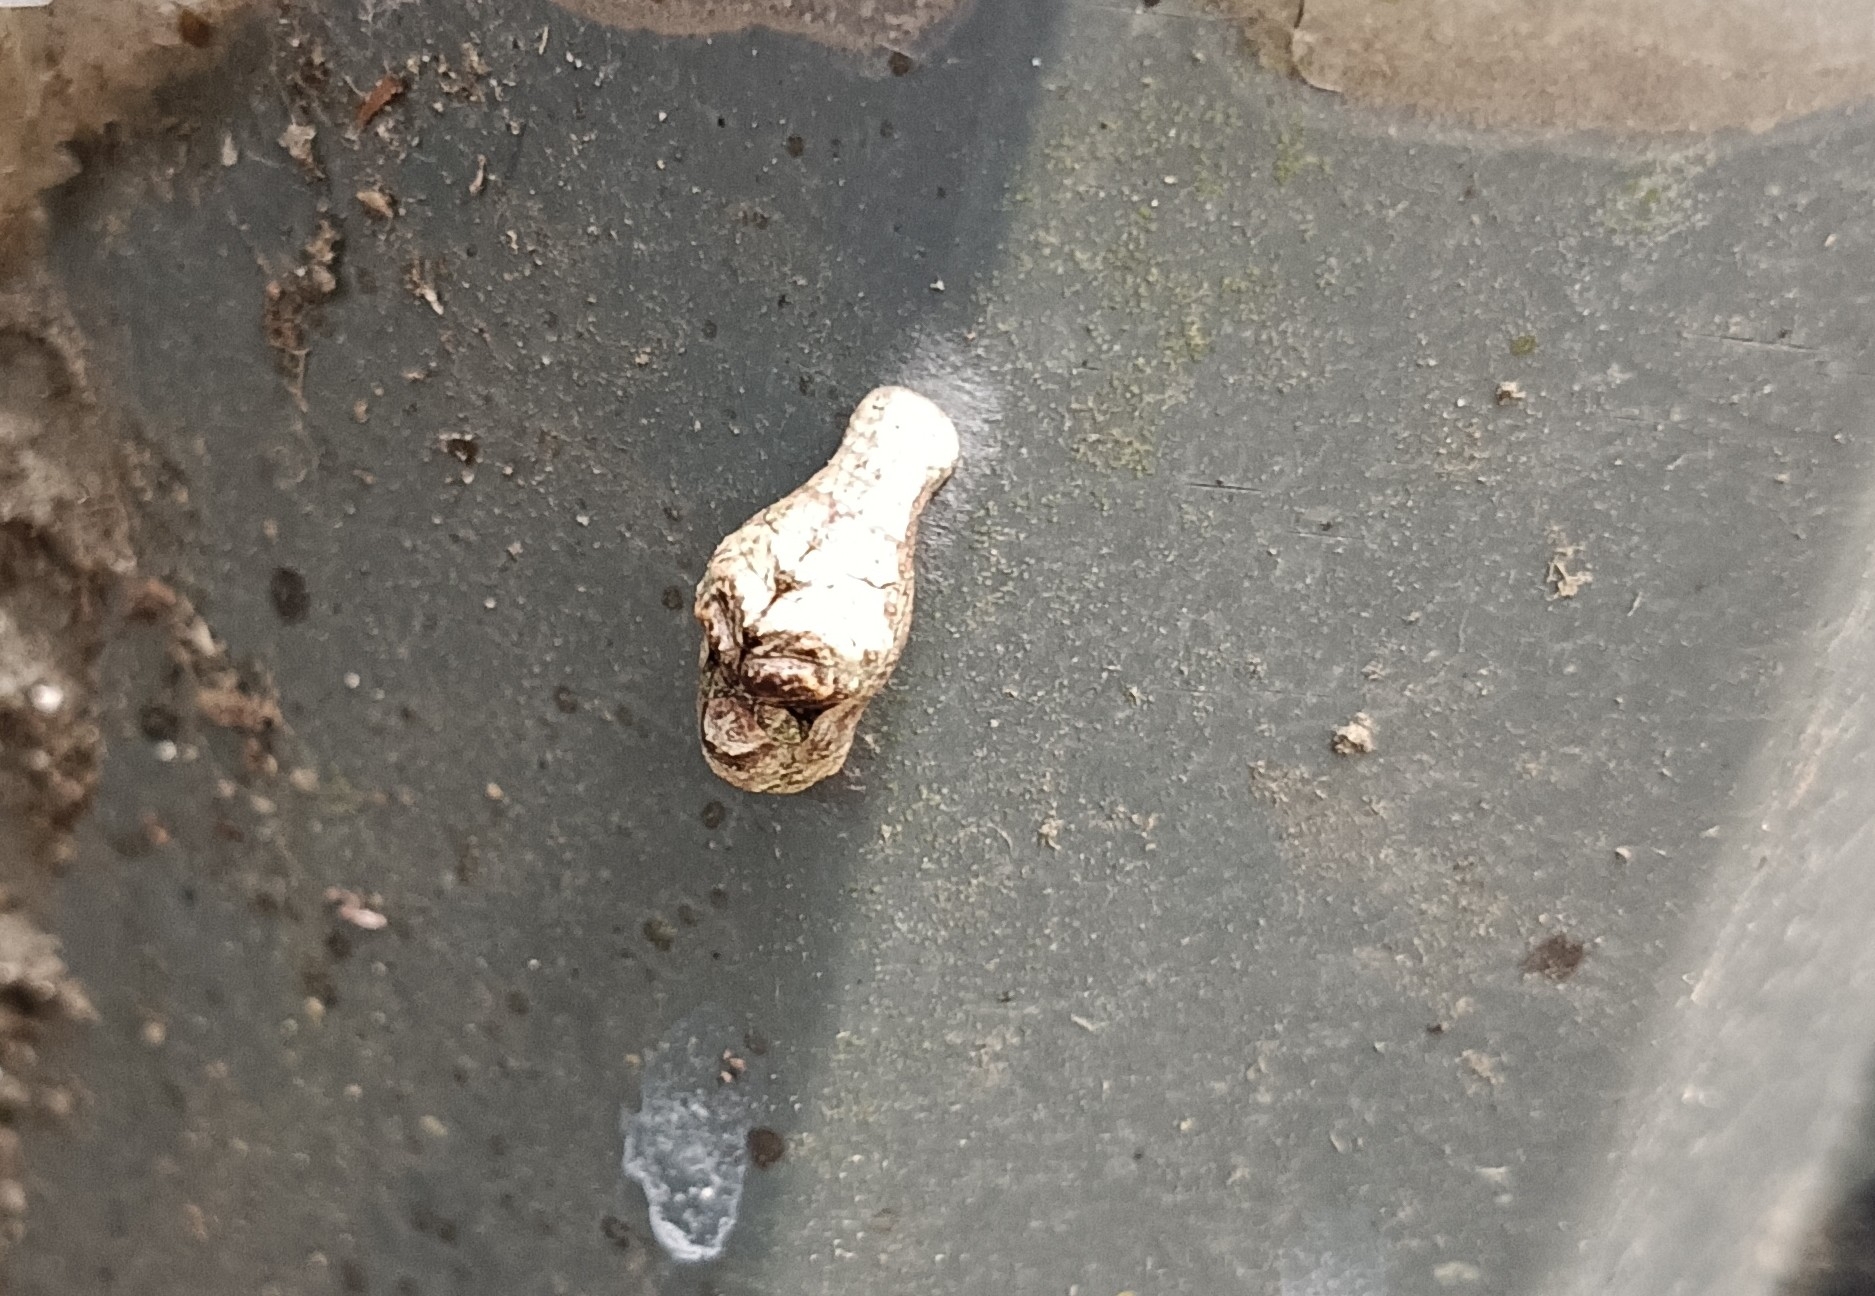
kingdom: Animalia
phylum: Arthropoda
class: Insecta
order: Lepidoptera
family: Lycaenidae
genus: Tajuria
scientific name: Tajuria cippus
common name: Peacock royal
